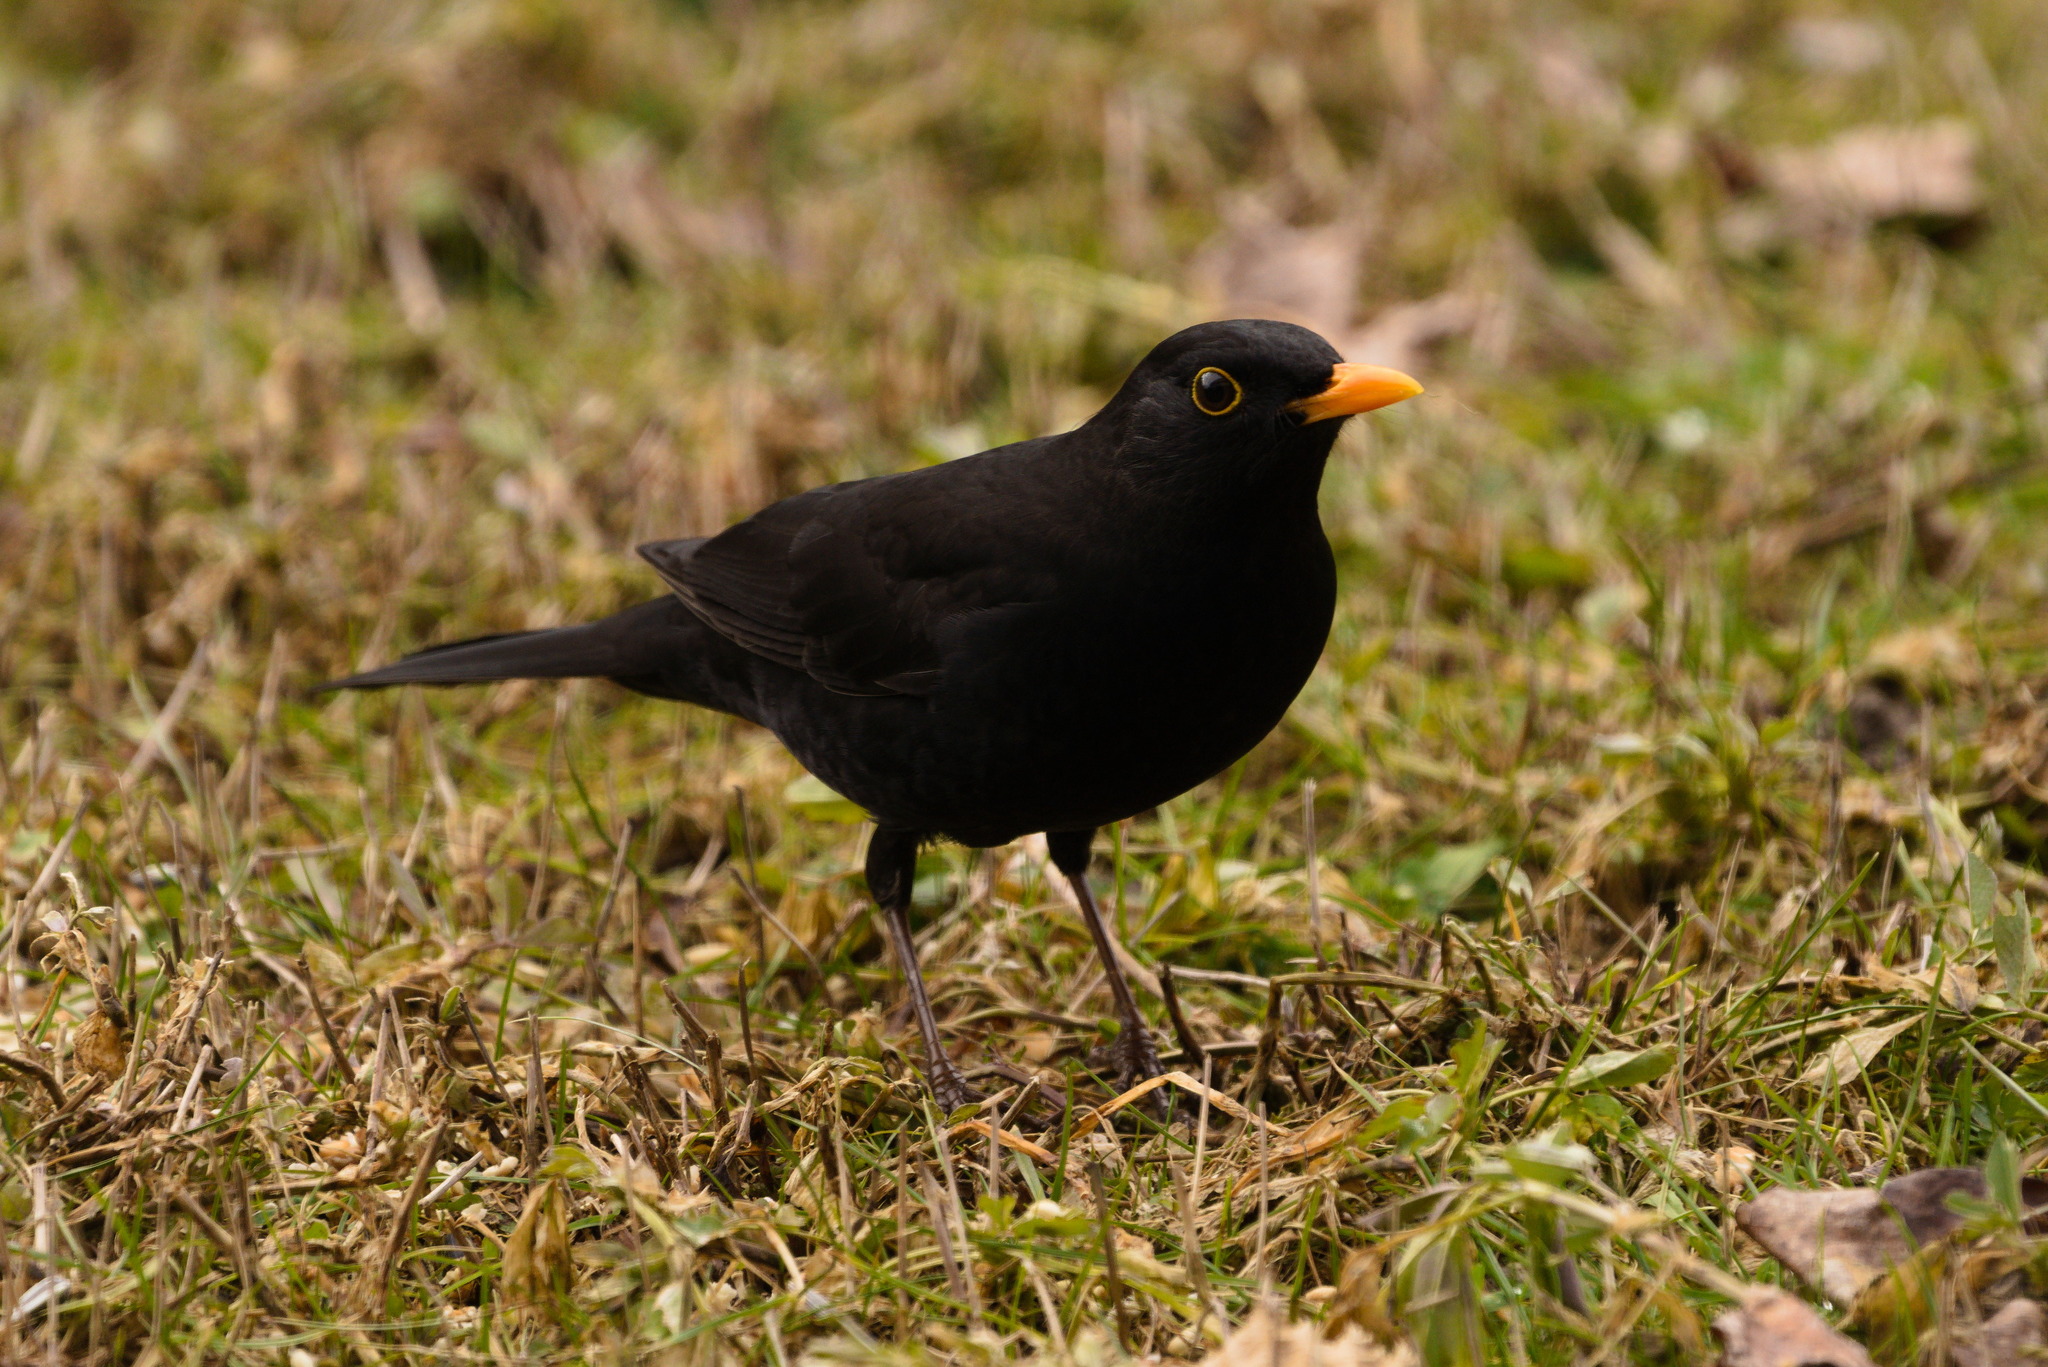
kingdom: Animalia
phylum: Chordata
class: Aves
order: Passeriformes
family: Turdidae
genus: Turdus
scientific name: Turdus merula
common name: Common blackbird
